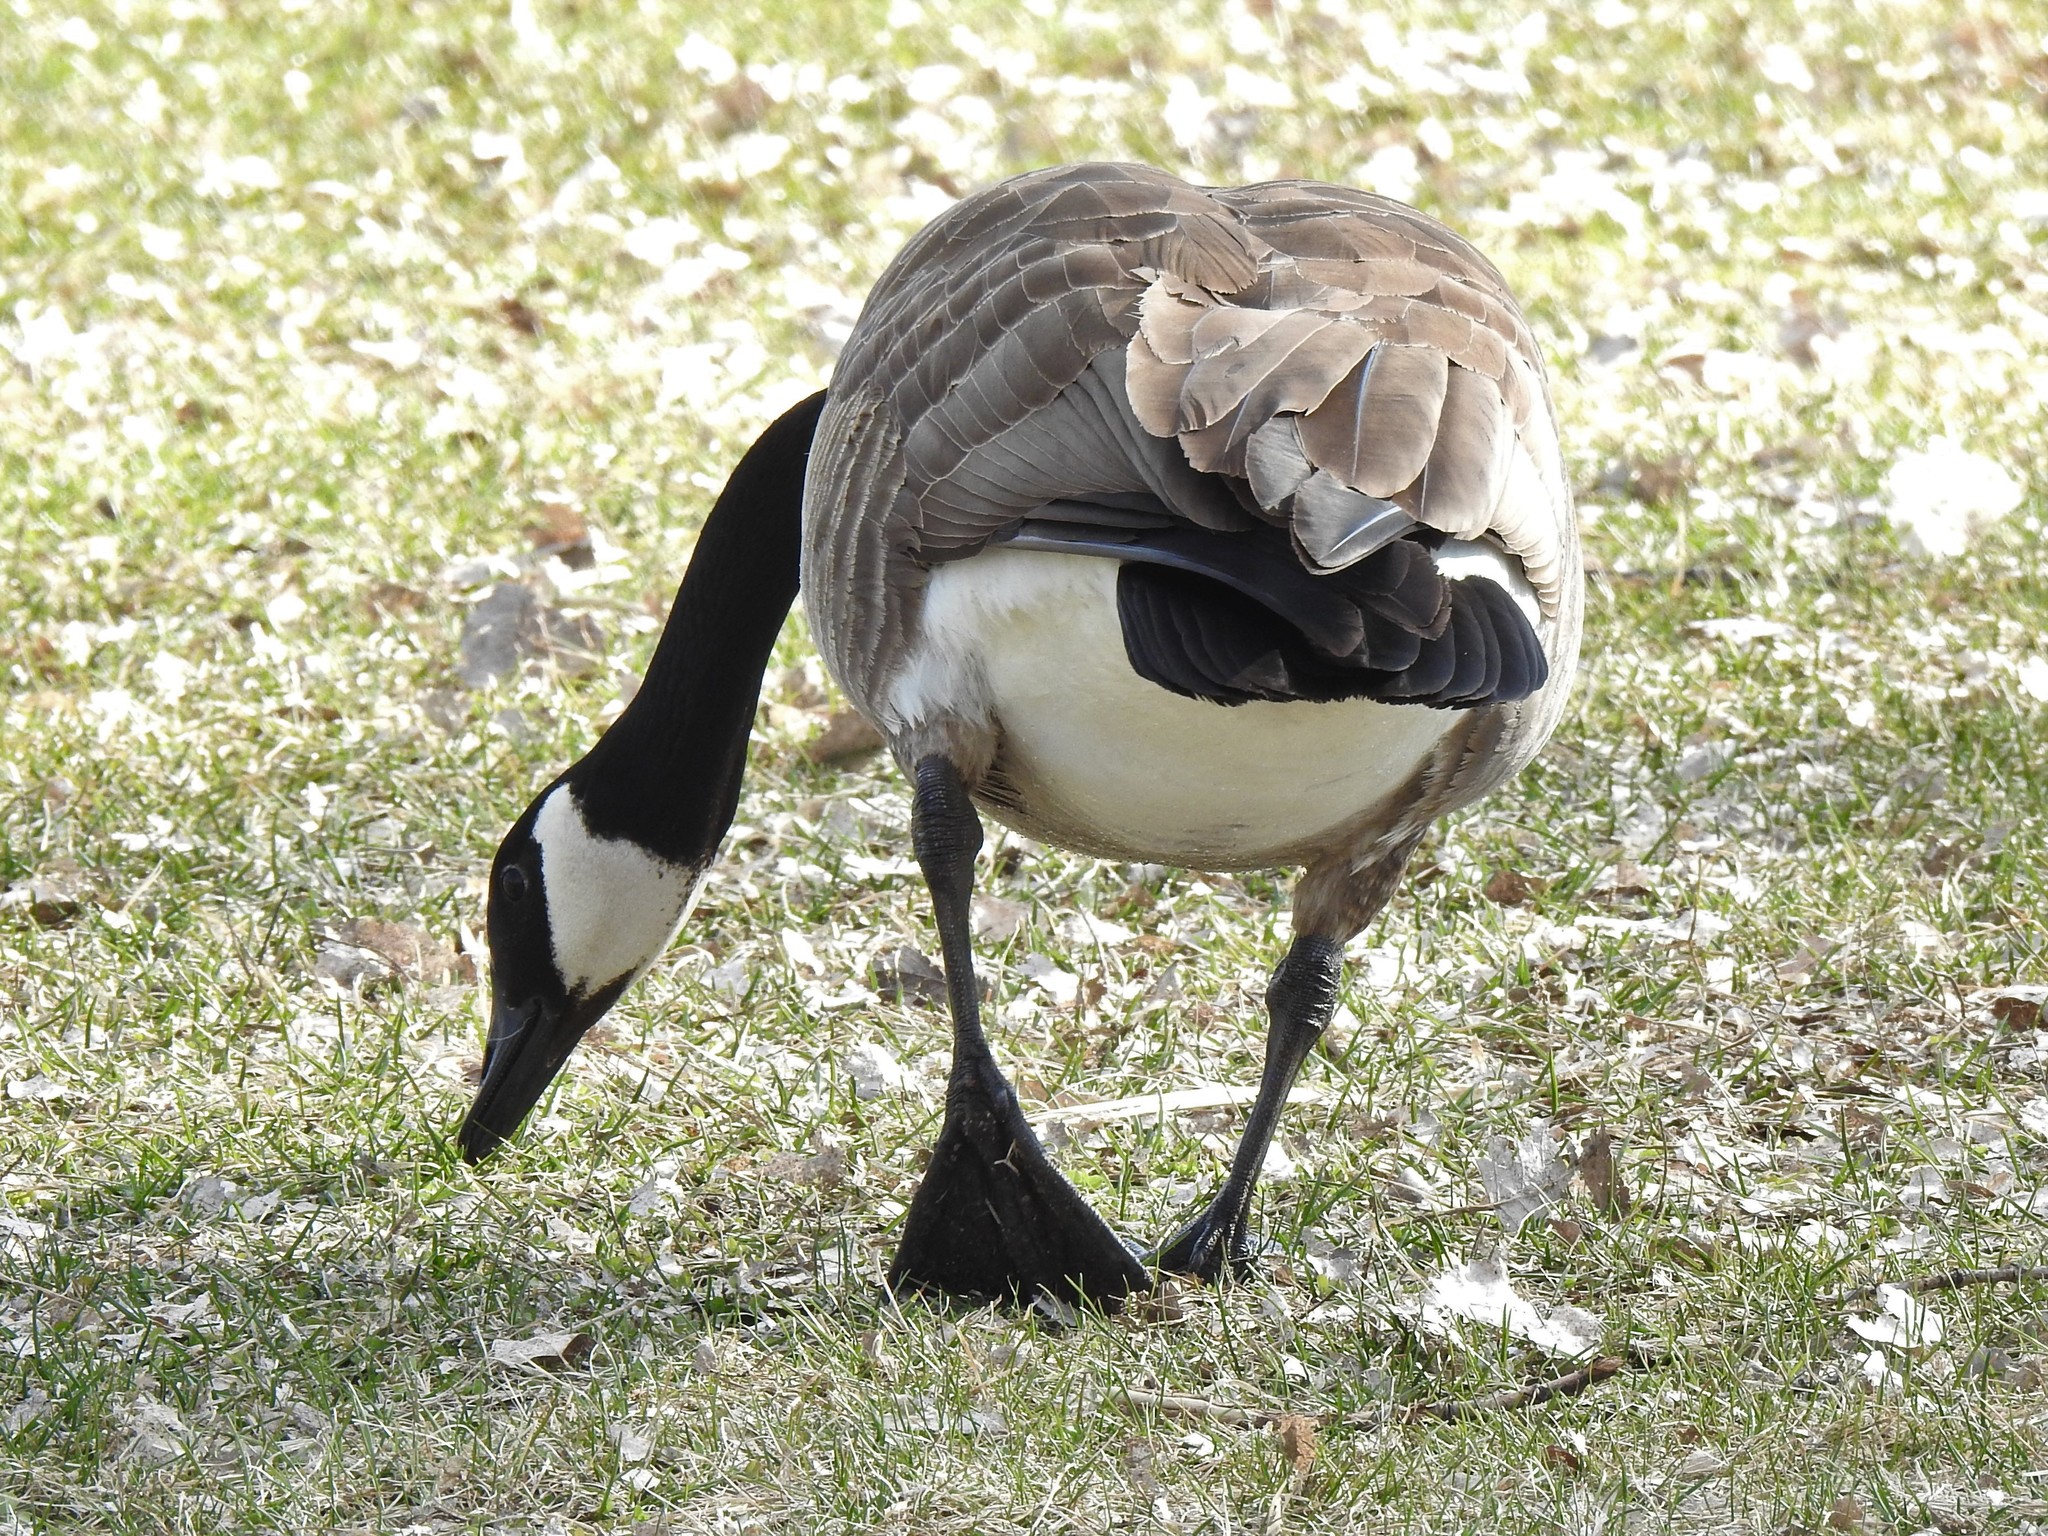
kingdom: Animalia
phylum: Chordata
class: Aves
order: Anseriformes
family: Anatidae
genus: Branta
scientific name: Branta canadensis
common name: Canada goose
